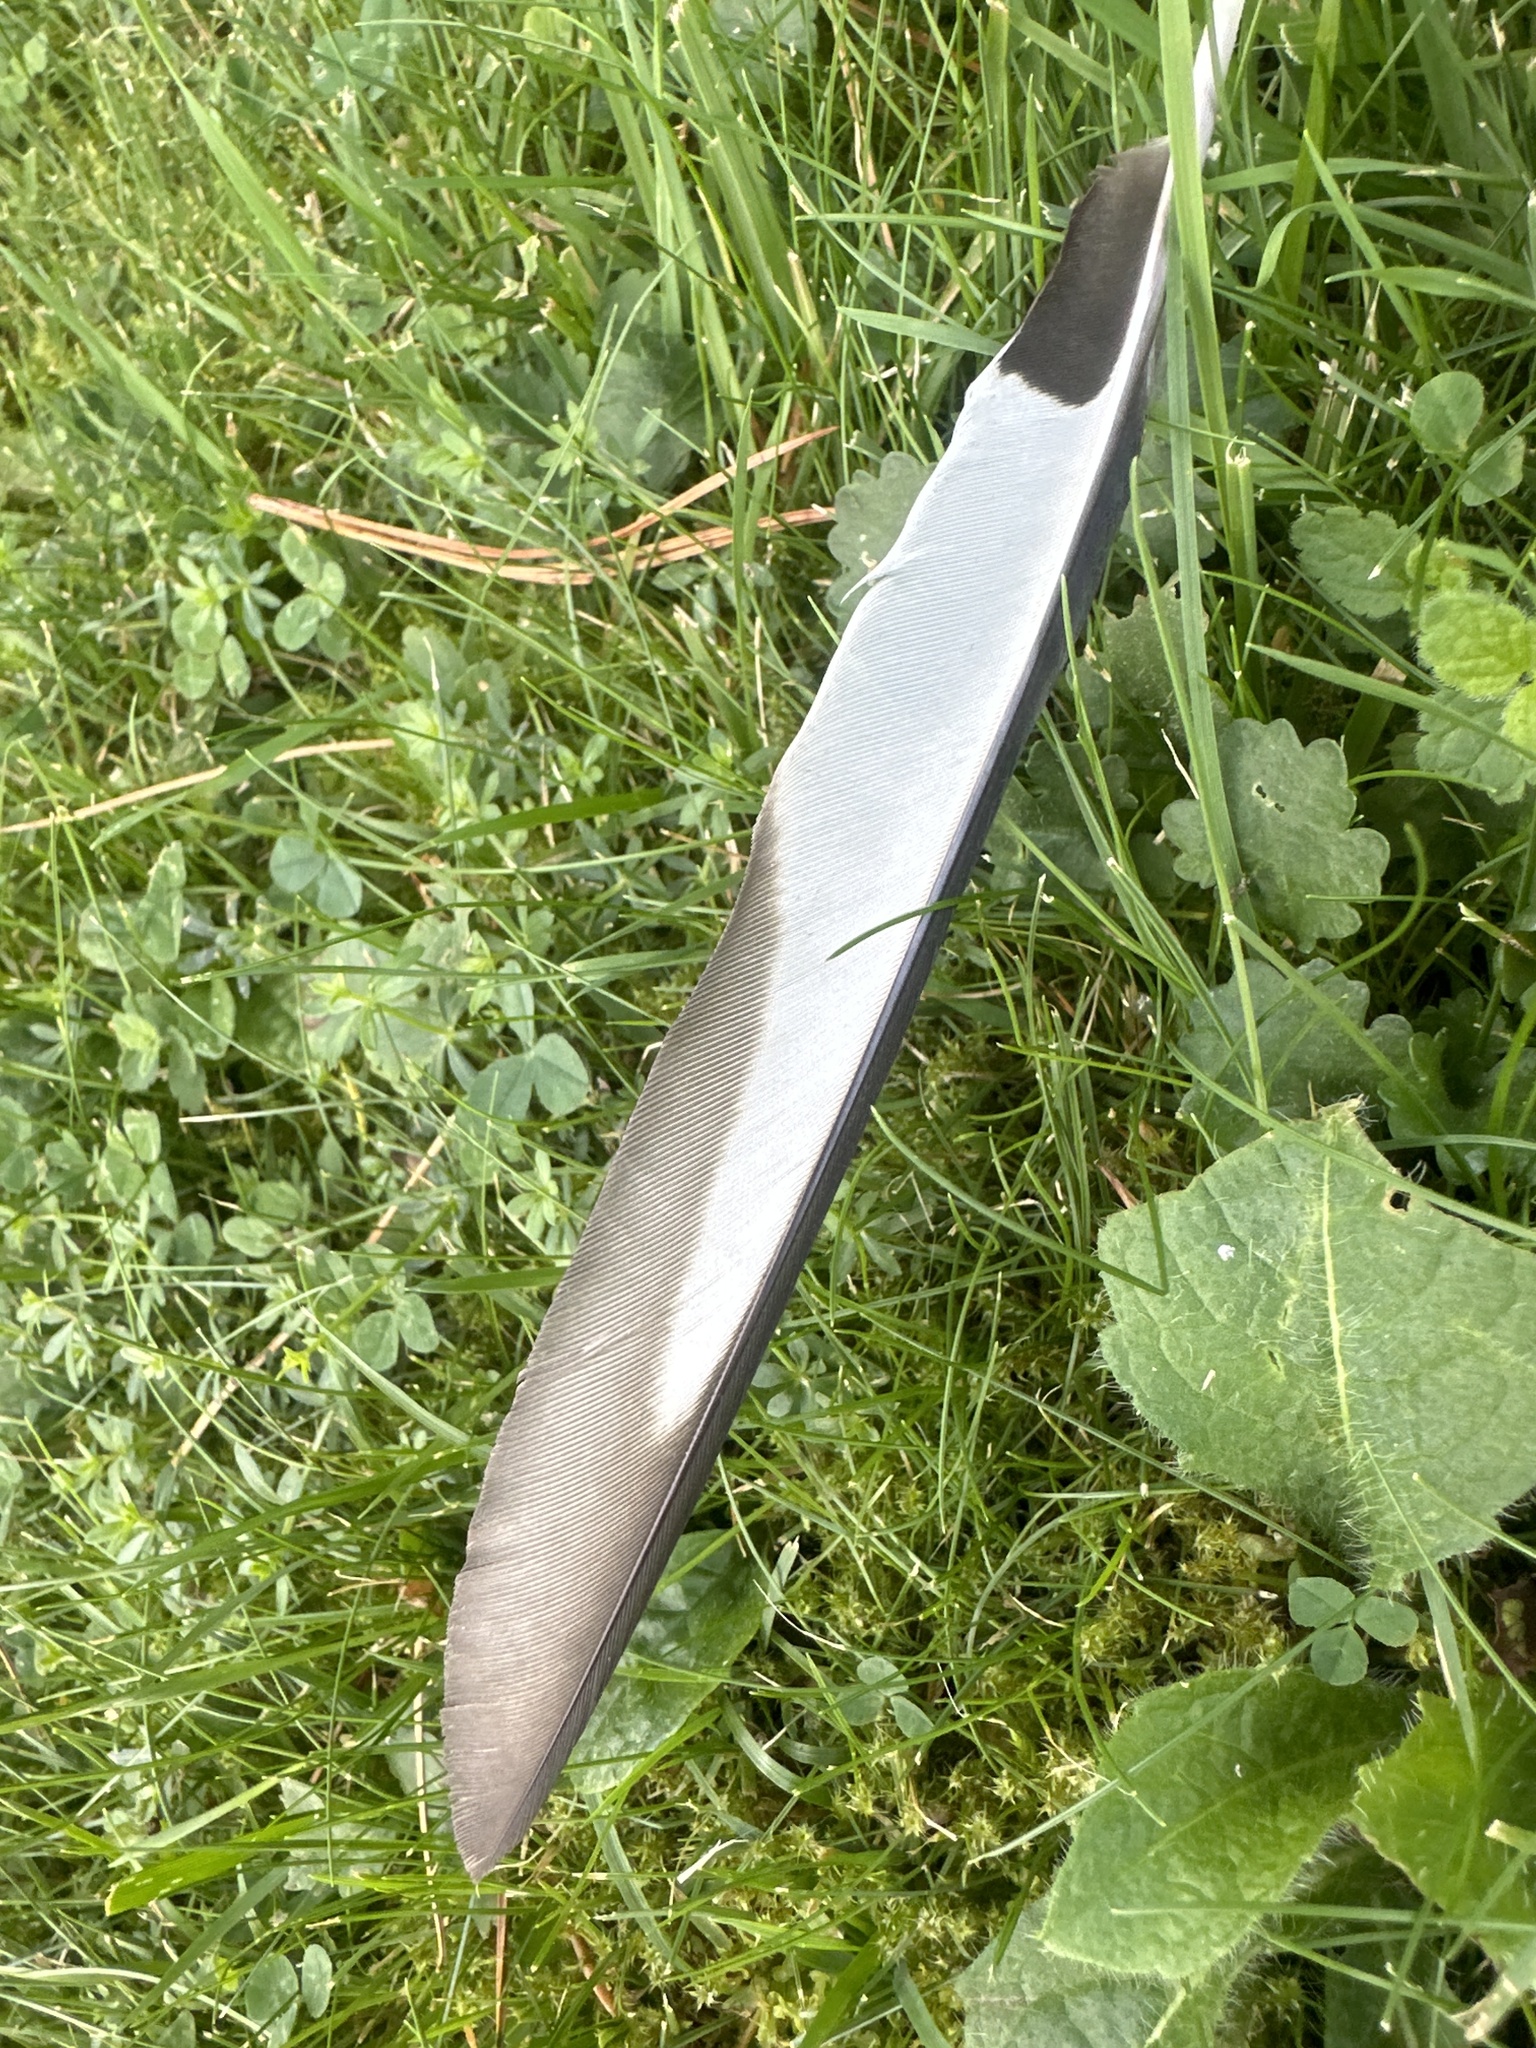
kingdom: Animalia
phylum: Chordata
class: Aves
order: Passeriformes
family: Corvidae
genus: Pica
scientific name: Pica pica
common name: Eurasian magpie
